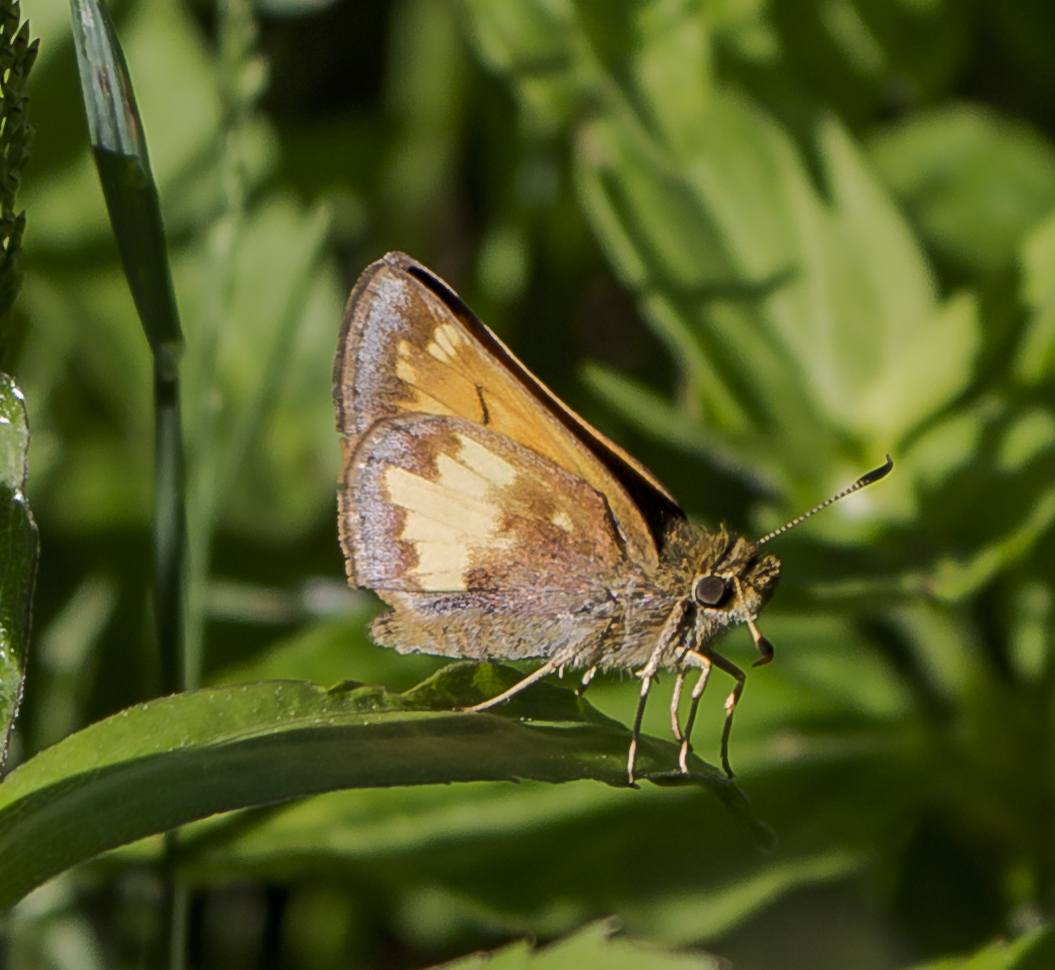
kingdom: Animalia
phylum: Arthropoda
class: Insecta
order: Lepidoptera
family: Hesperiidae
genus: Lon
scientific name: Lon hobomok
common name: Hobomok skipper
